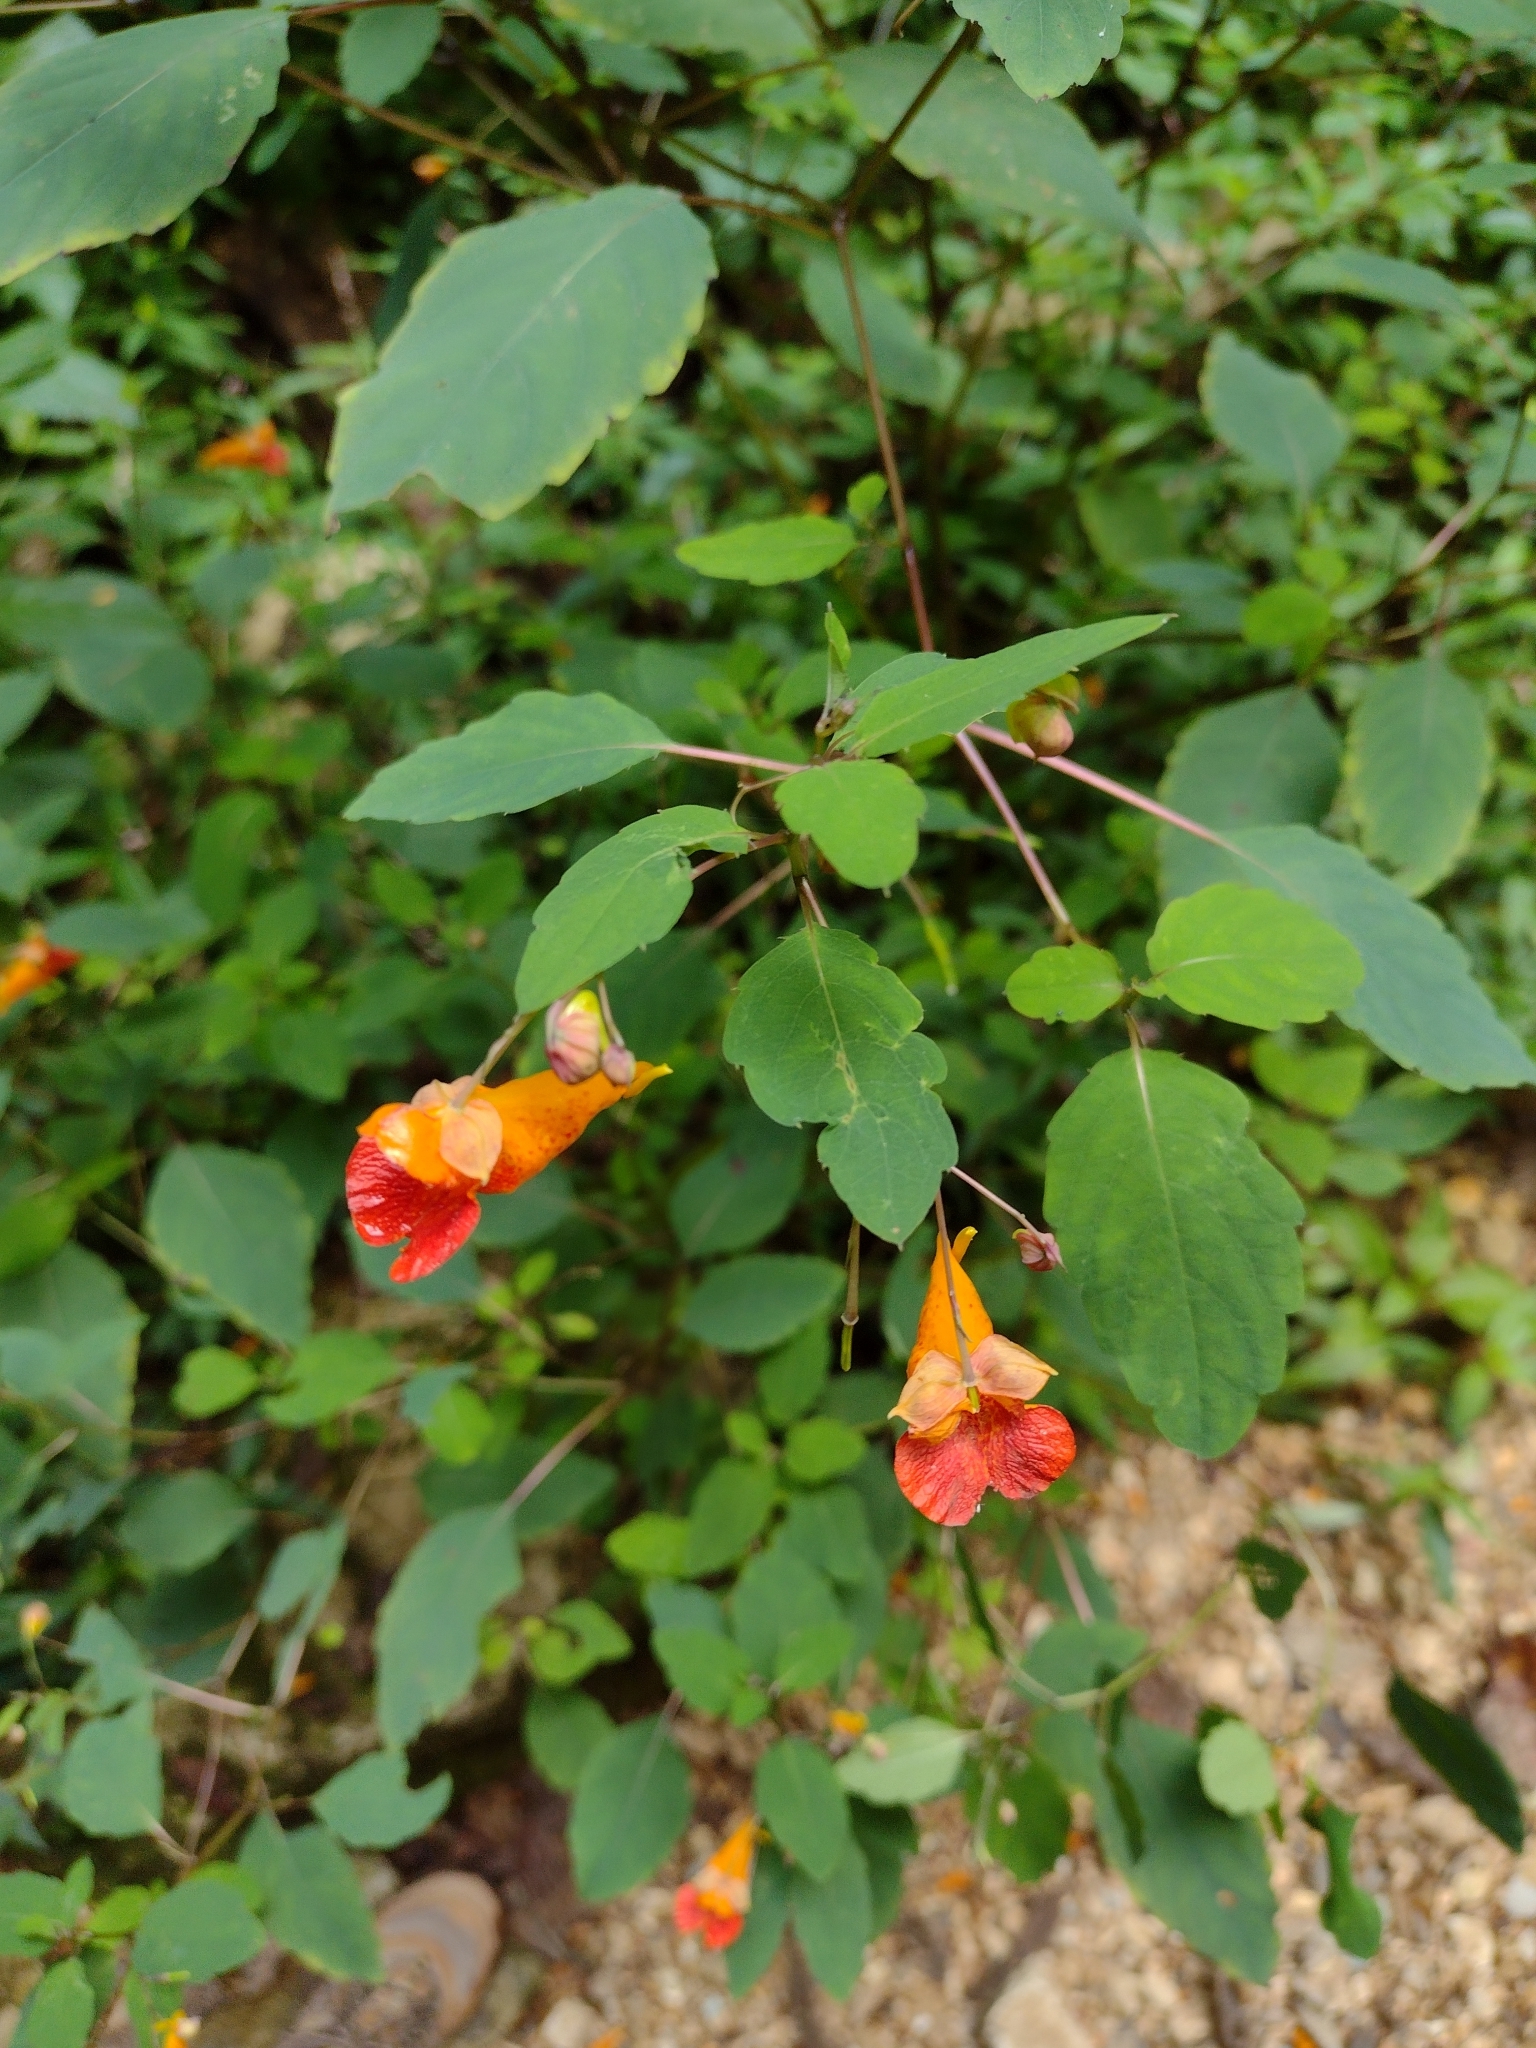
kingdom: Plantae
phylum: Tracheophyta
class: Magnoliopsida
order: Ericales
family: Balsaminaceae
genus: Impatiens
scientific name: Impatiens capensis
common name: Orange balsam
